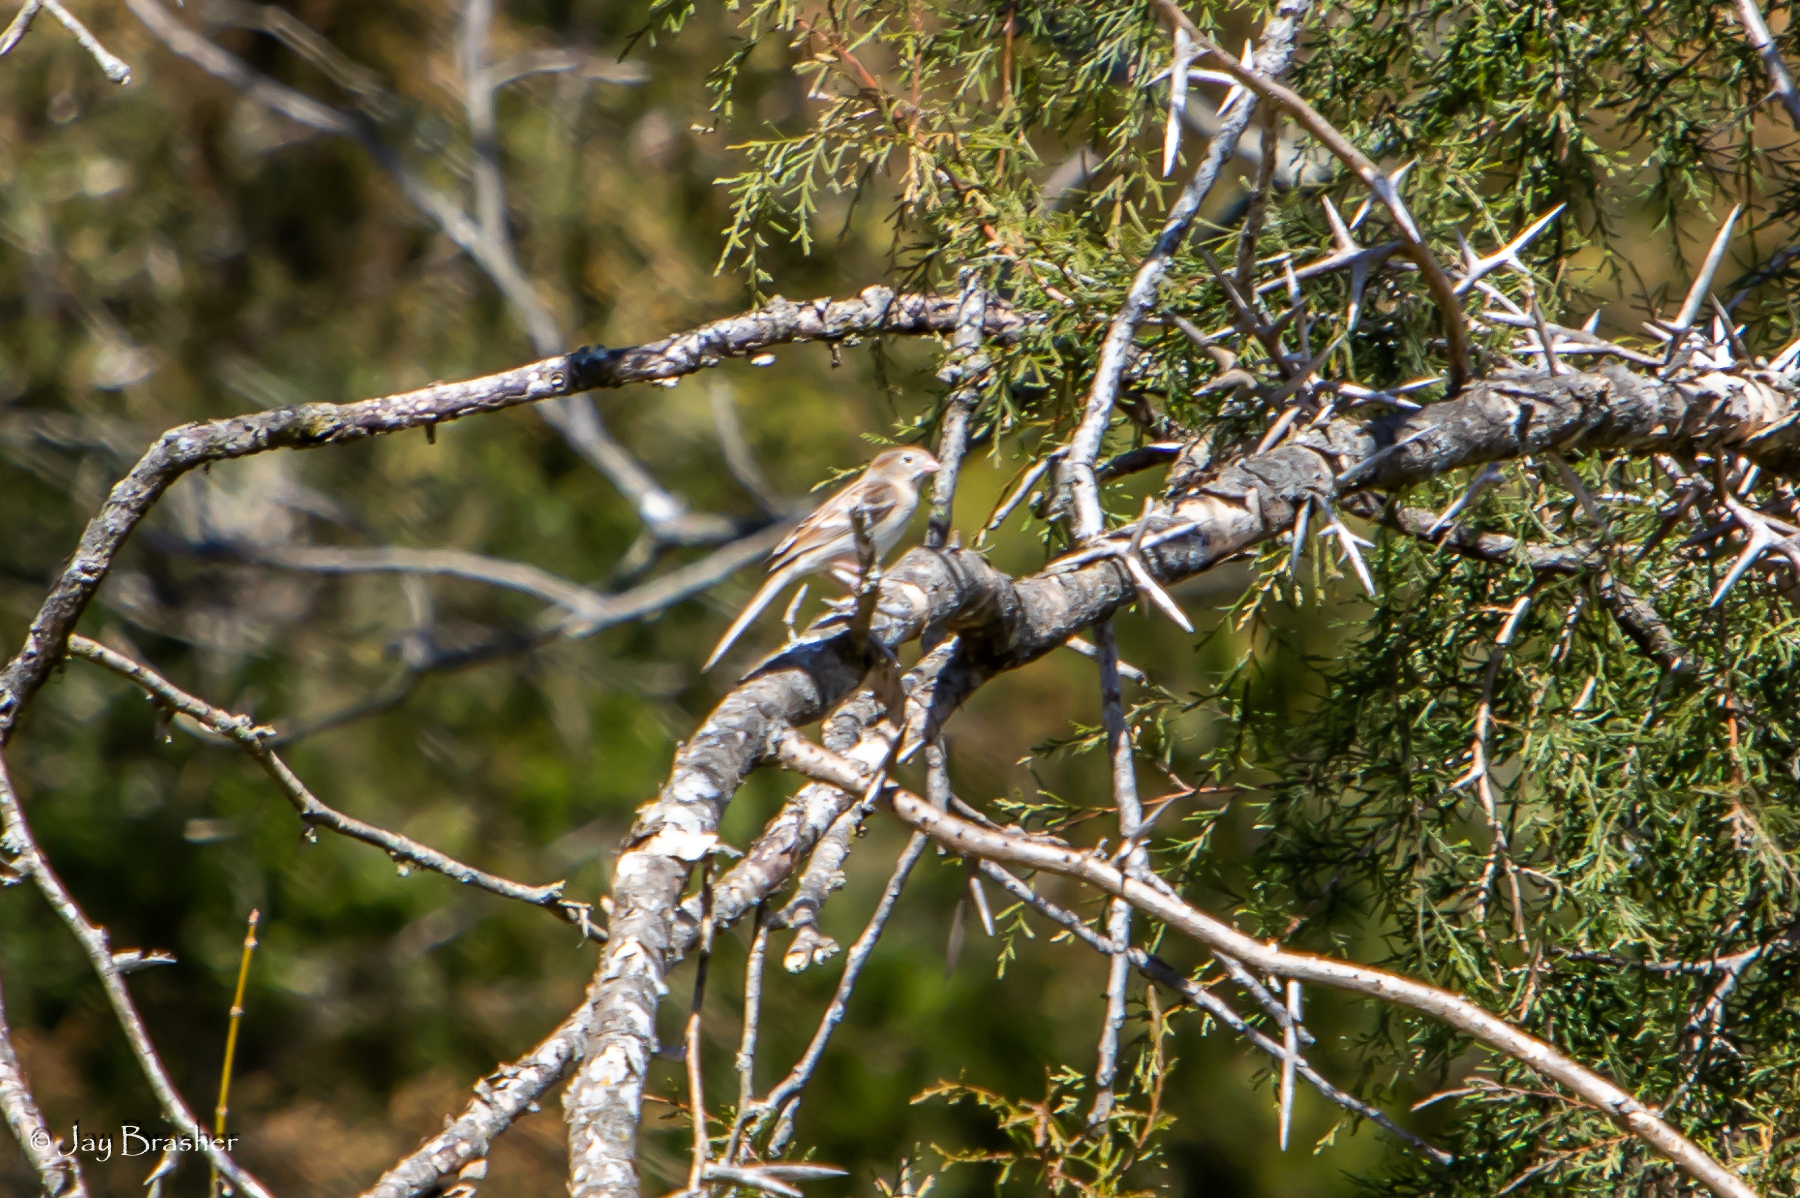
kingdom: Animalia
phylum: Chordata
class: Aves
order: Passeriformes
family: Passerellidae
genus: Spizella
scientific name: Spizella pusilla
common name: Field sparrow
